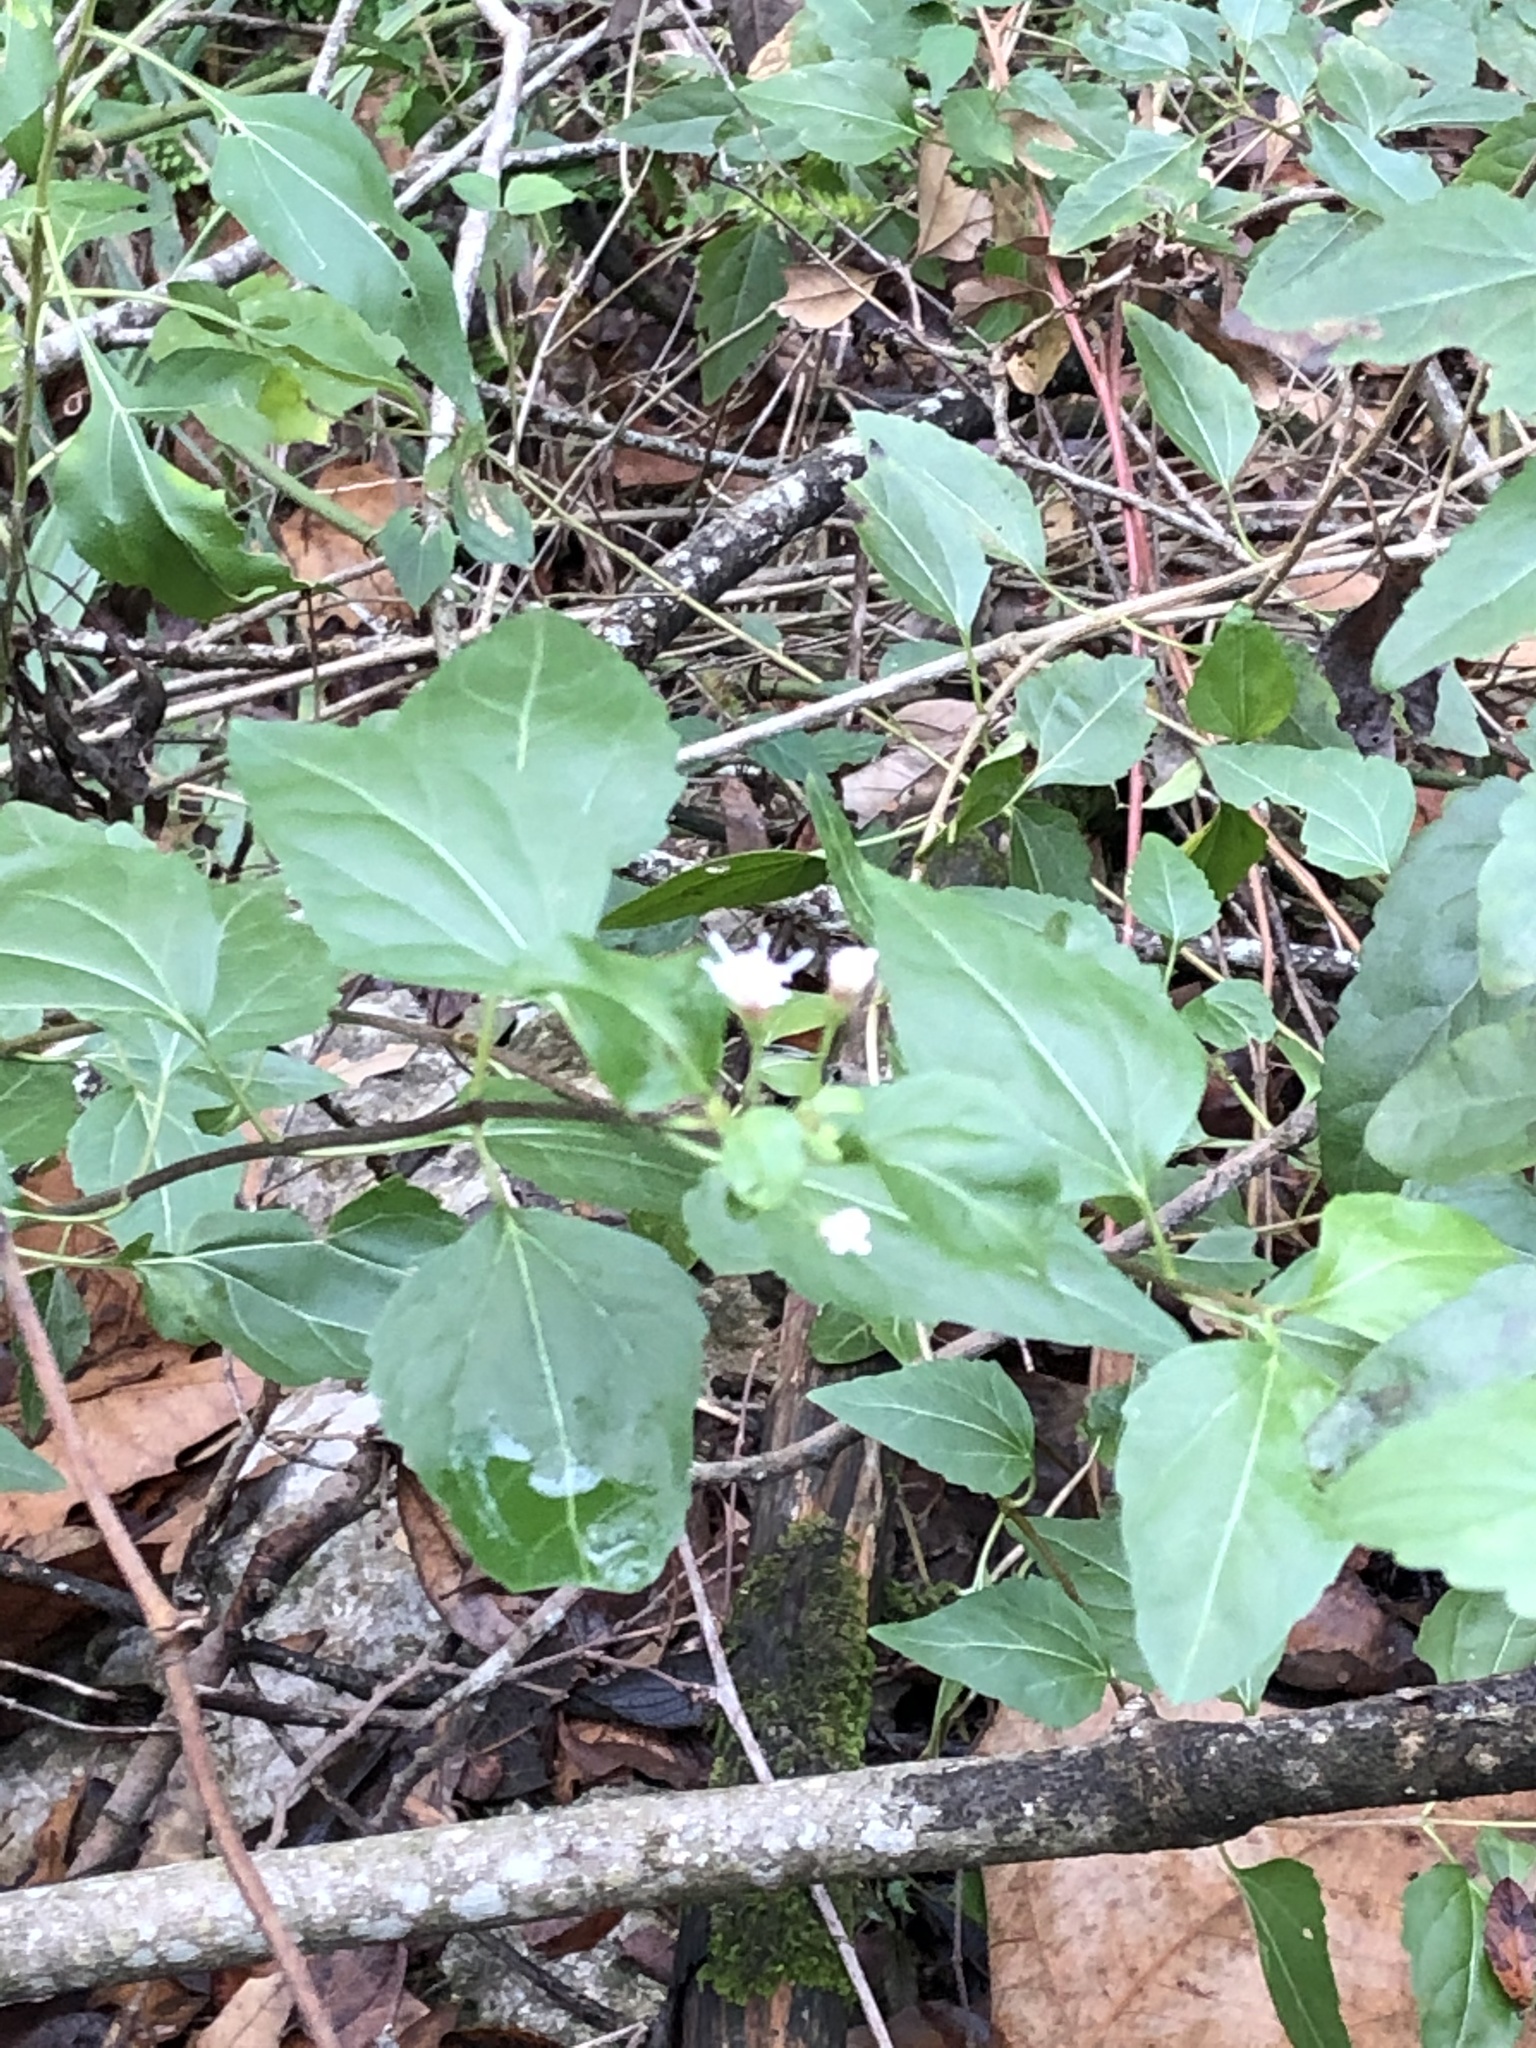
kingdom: Plantae
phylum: Tracheophyta
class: Magnoliopsida
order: Asterales
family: Asteraceae
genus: Ageratina
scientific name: Ageratina havanensis
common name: Havana snakeroot
